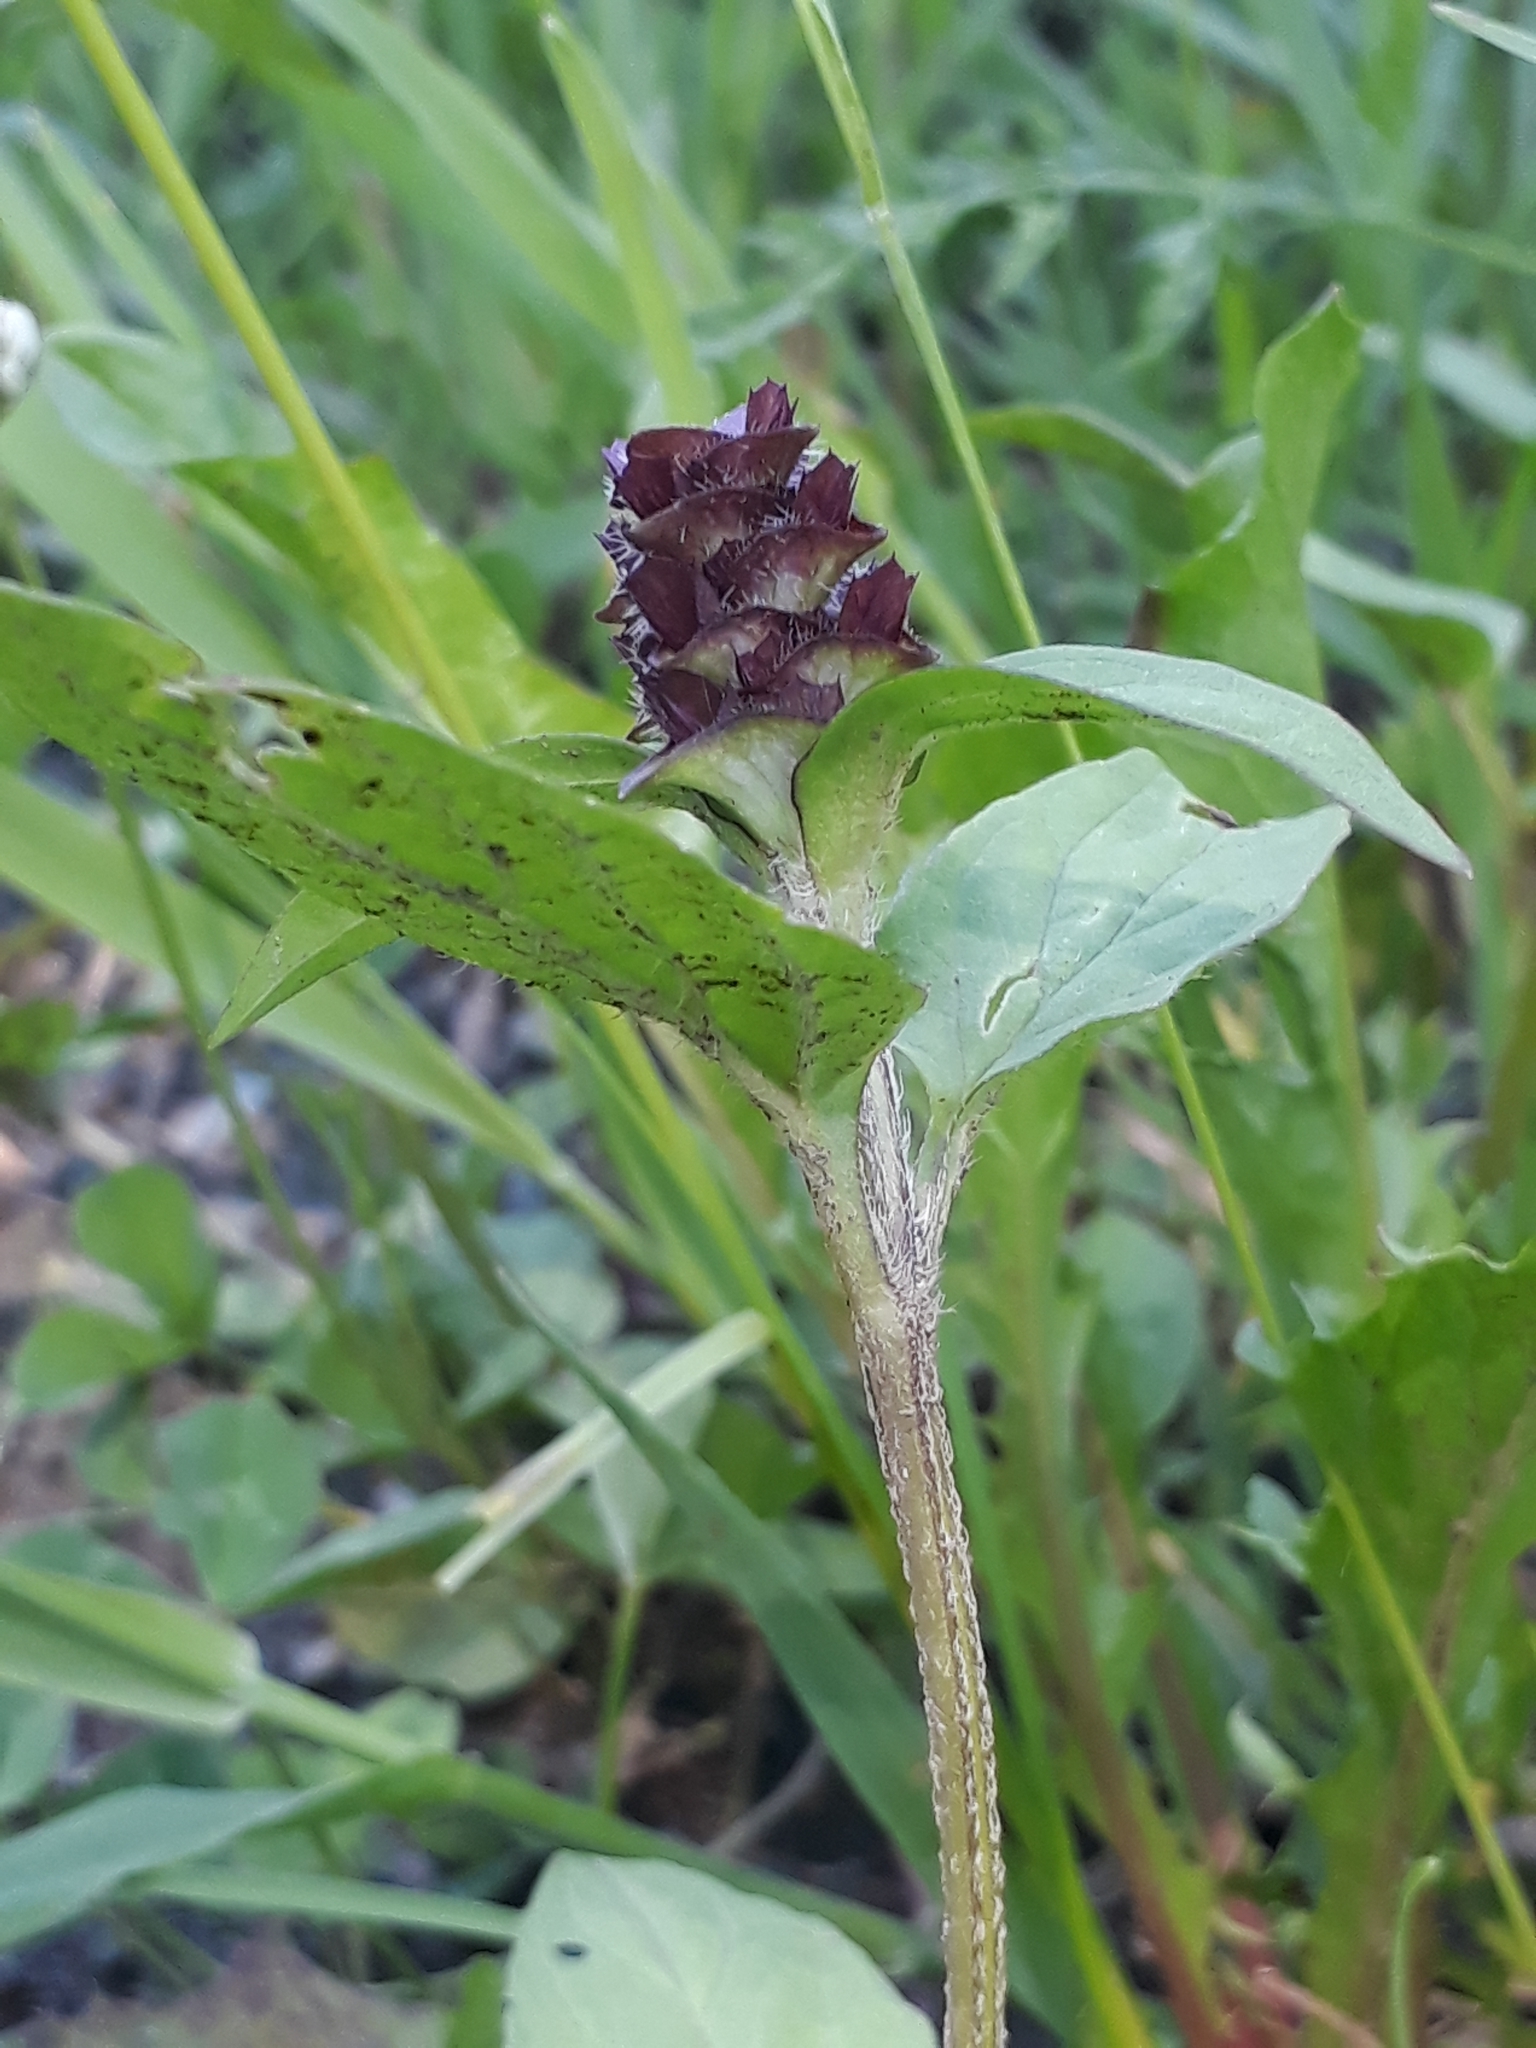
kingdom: Plantae
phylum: Tracheophyta
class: Magnoliopsida
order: Lamiales
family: Lamiaceae
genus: Prunella
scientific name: Prunella vulgaris
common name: Heal-all
